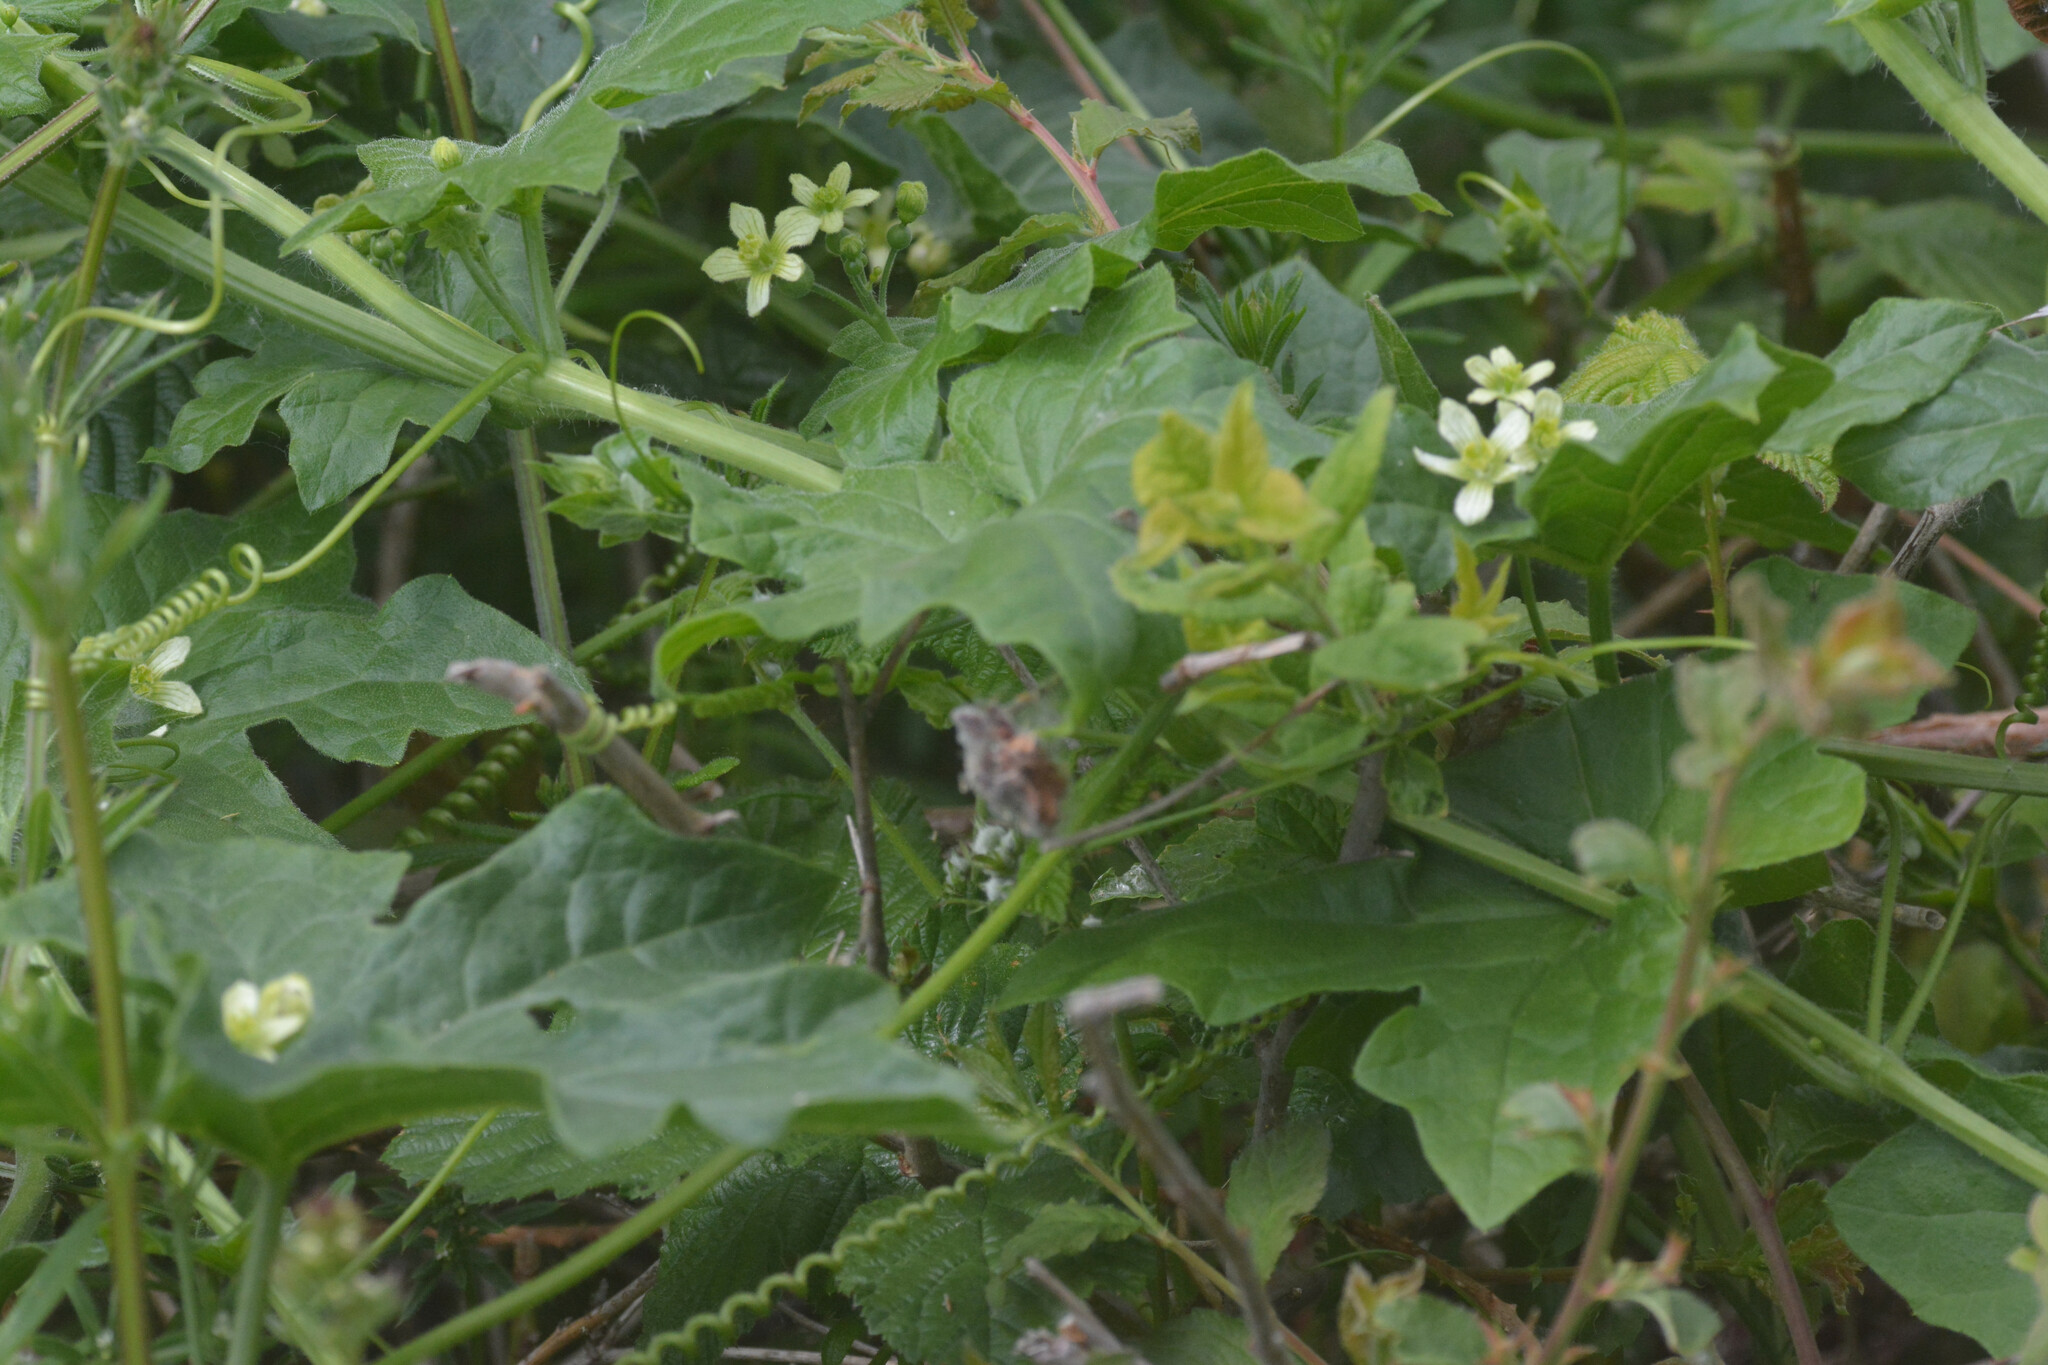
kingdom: Plantae
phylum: Tracheophyta
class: Magnoliopsida
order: Cucurbitales
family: Cucurbitaceae
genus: Bryonia
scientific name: Bryonia cretica
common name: Cretan bryony
